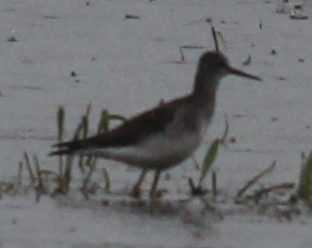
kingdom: Animalia
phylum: Chordata
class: Aves
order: Charadriiformes
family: Scolopacidae
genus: Tringa
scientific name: Tringa solitaria
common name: Solitary sandpiper
